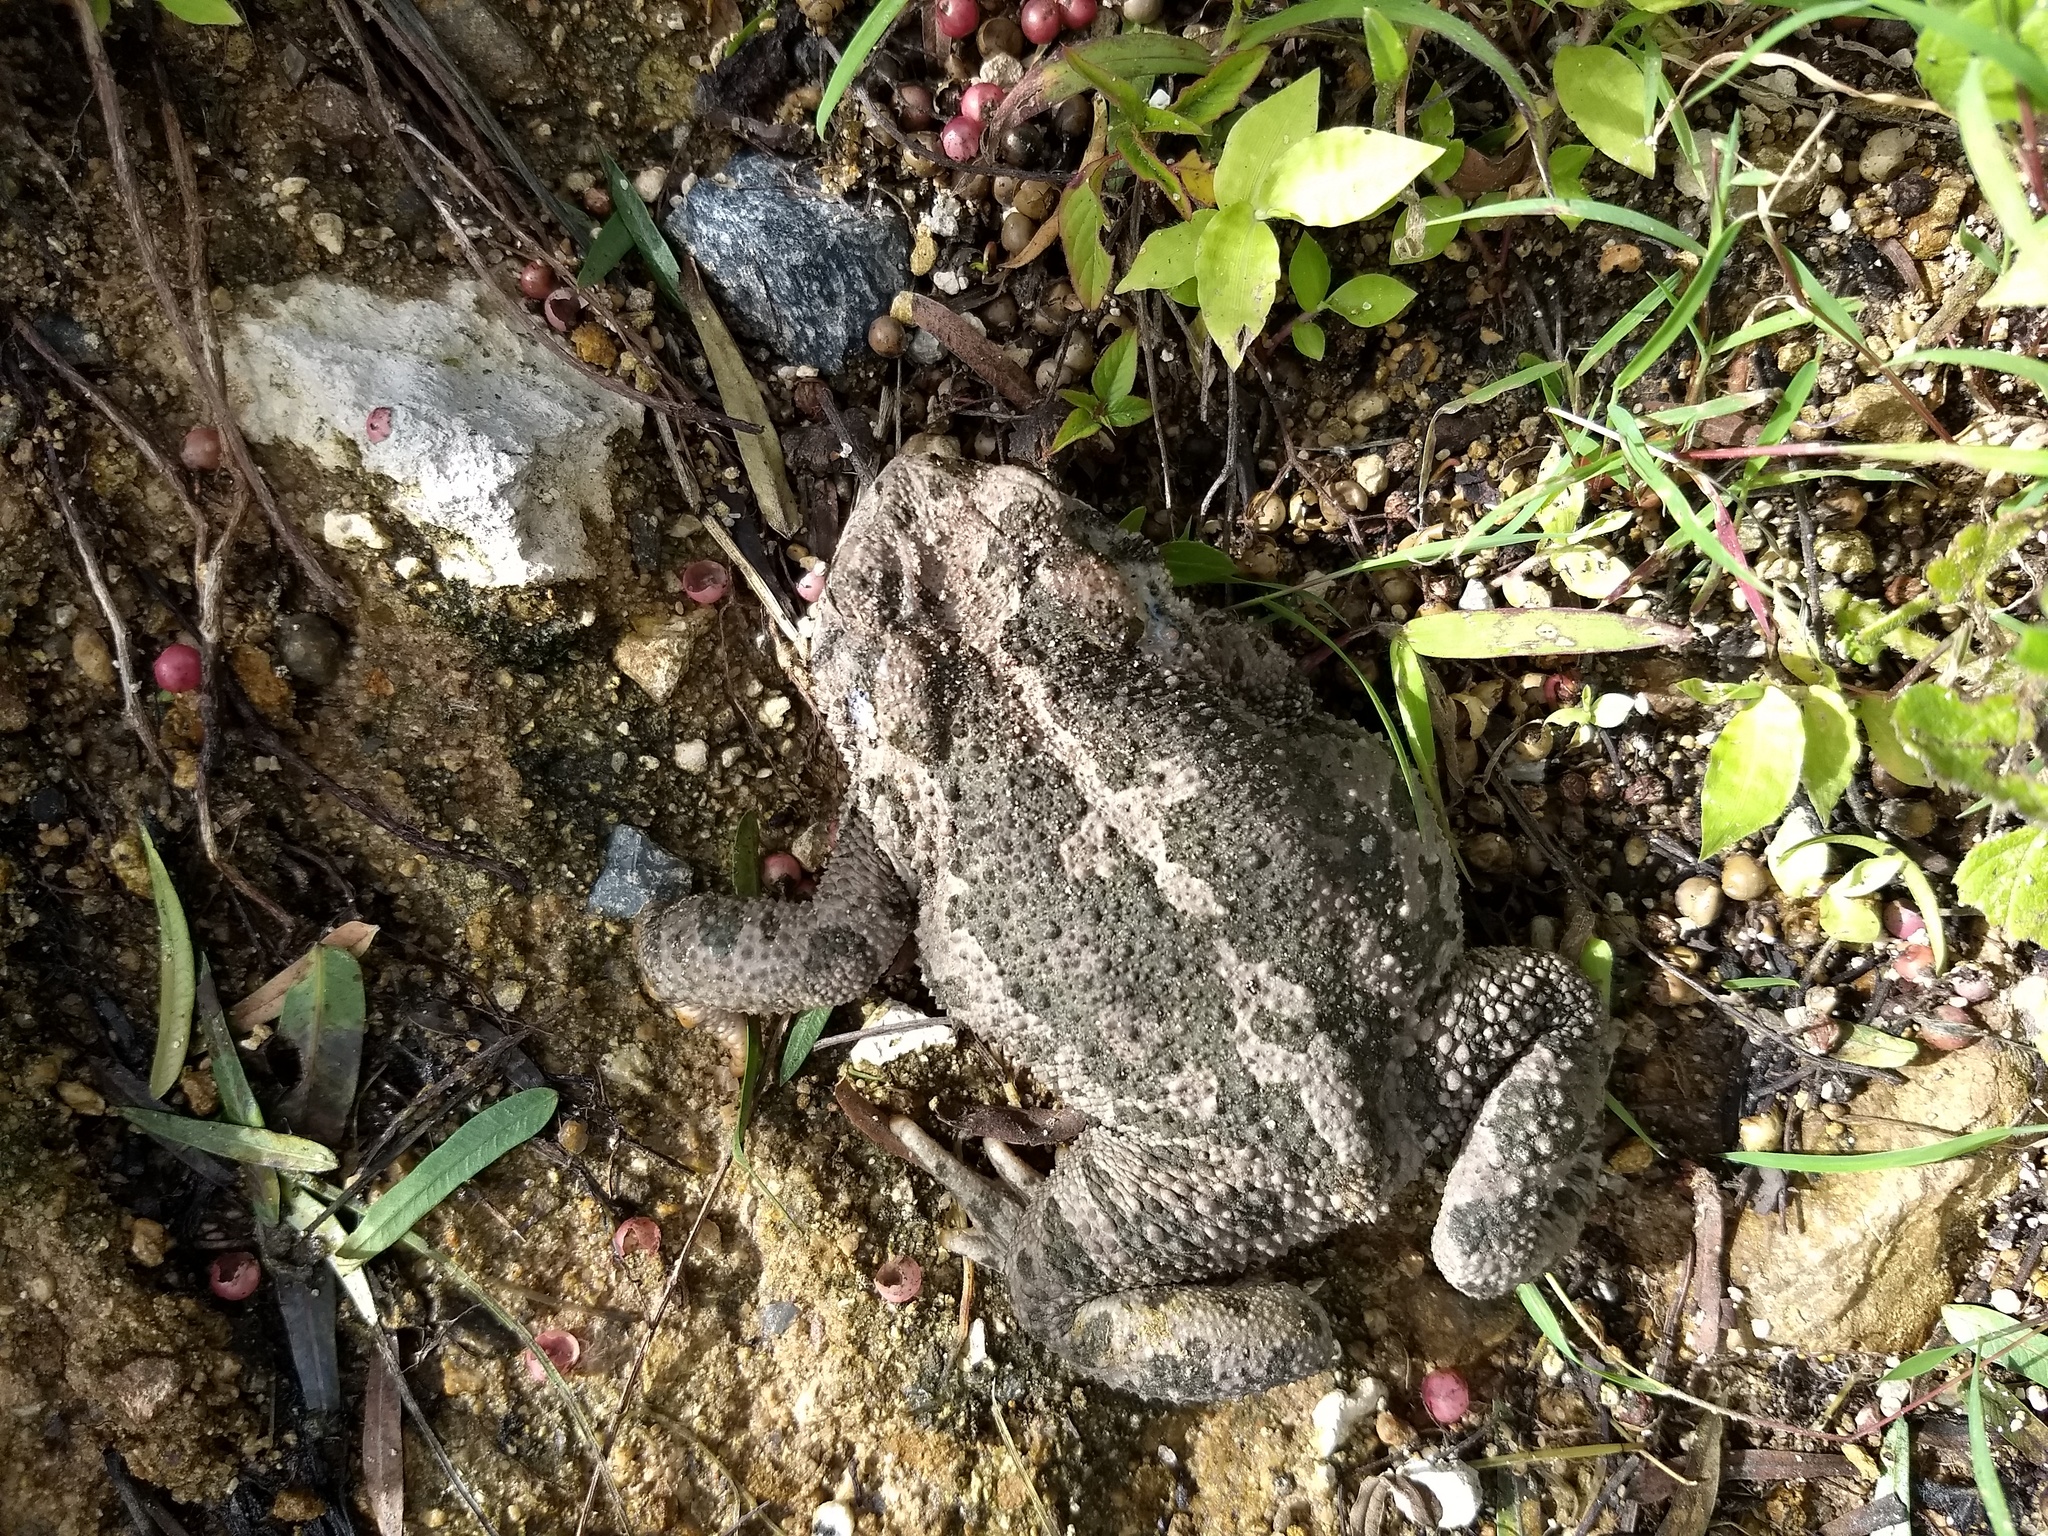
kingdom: Animalia
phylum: Chordata
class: Amphibia
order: Anura
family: Bufonidae
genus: Incilius
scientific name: Incilius occidentalis
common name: Pine toad
